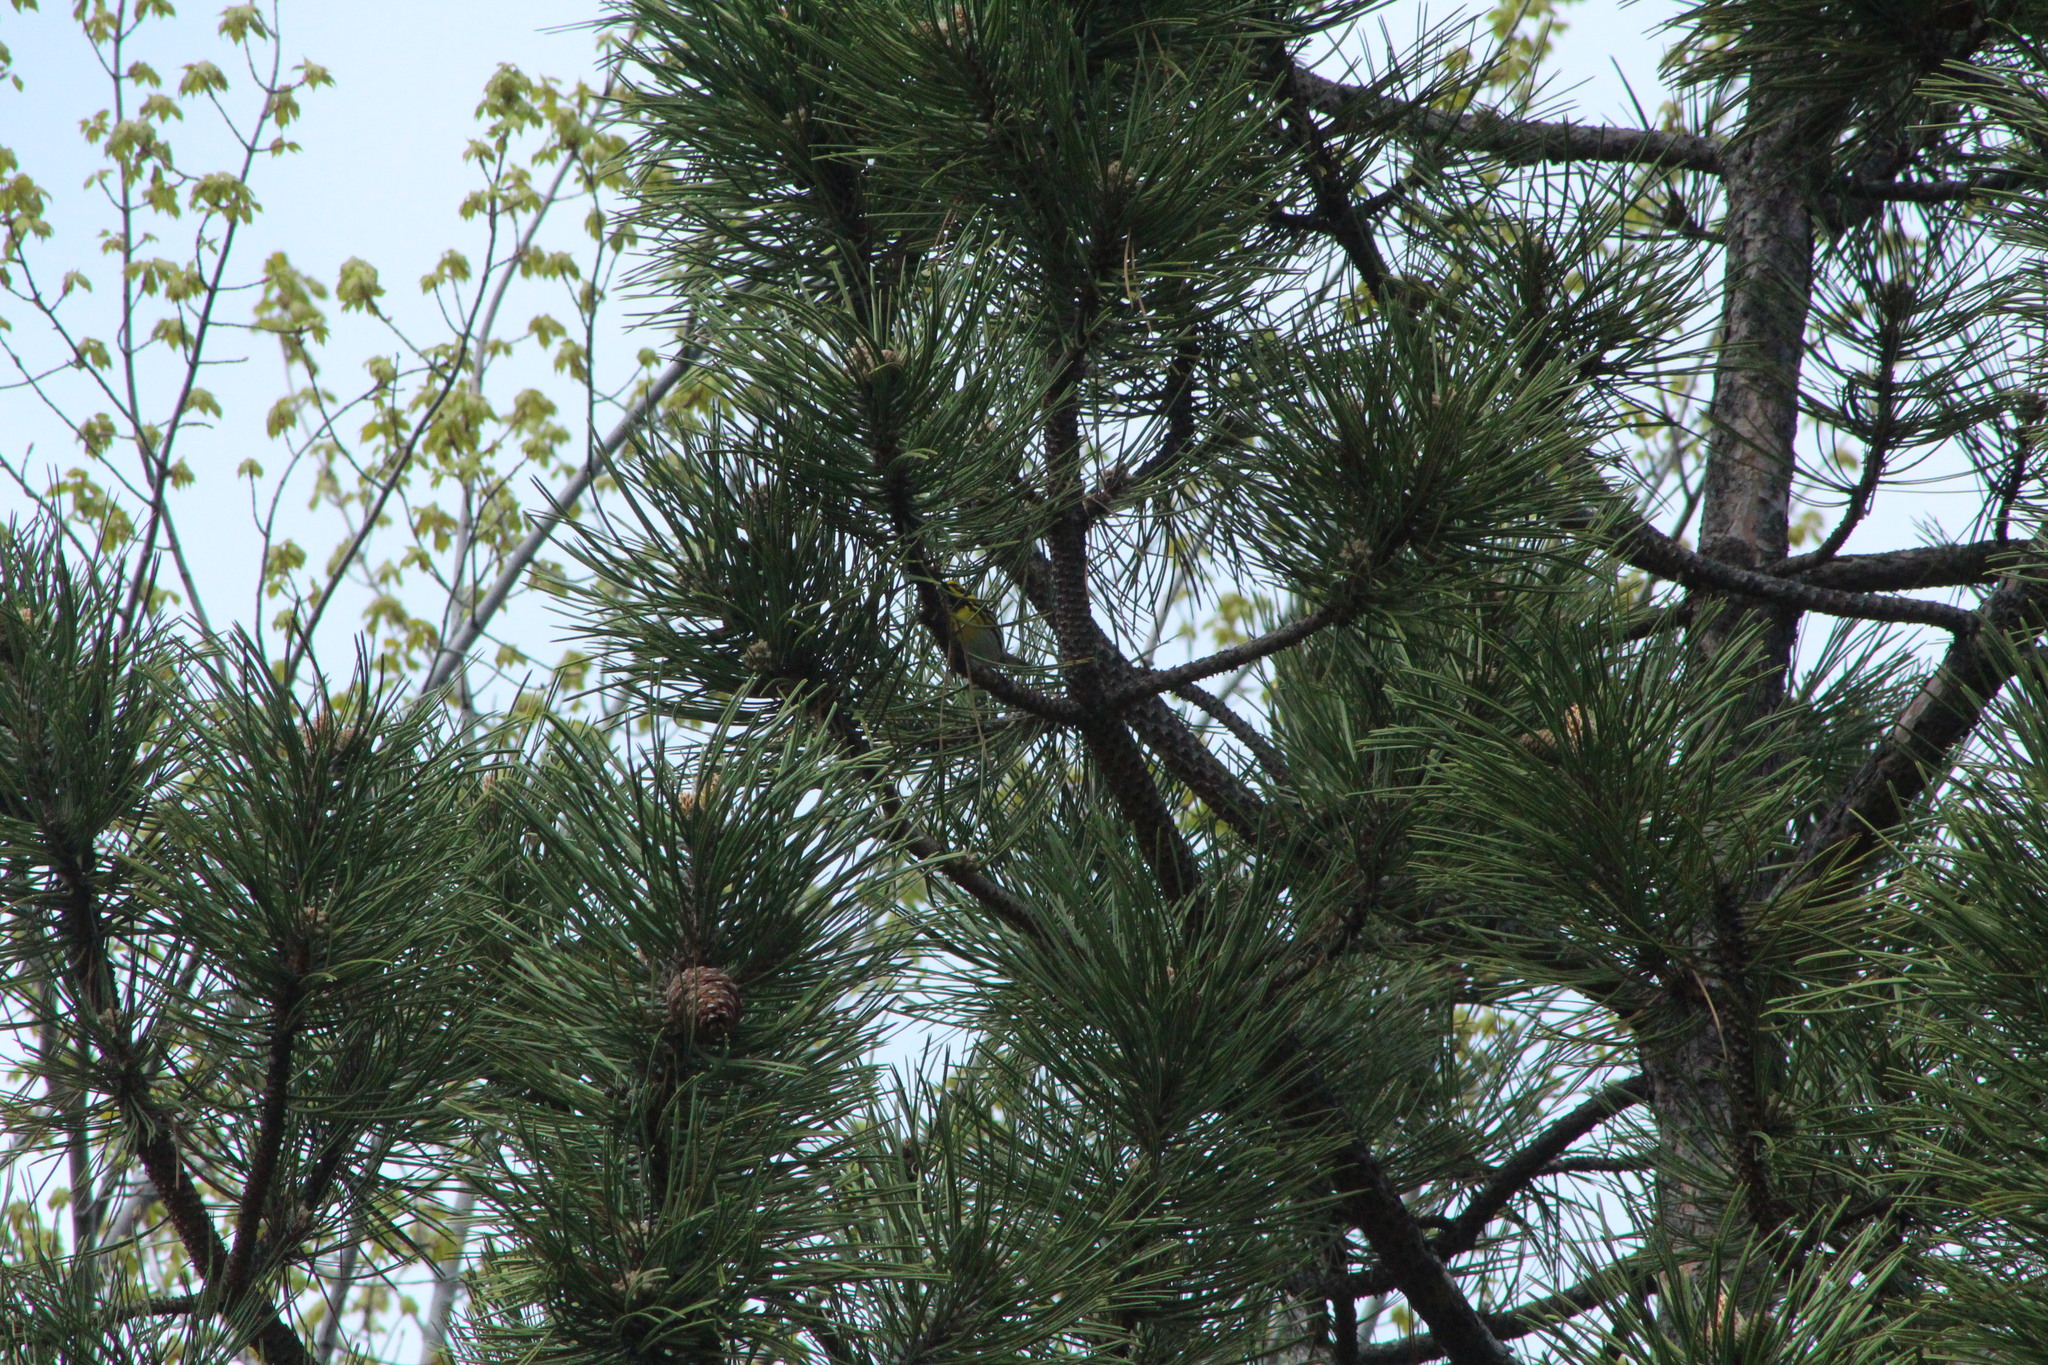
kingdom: Animalia
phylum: Chordata
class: Aves
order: Passeriformes
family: Parulidae
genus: Setophaga
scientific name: Setophaga townsendi
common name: Townsend's warbler
